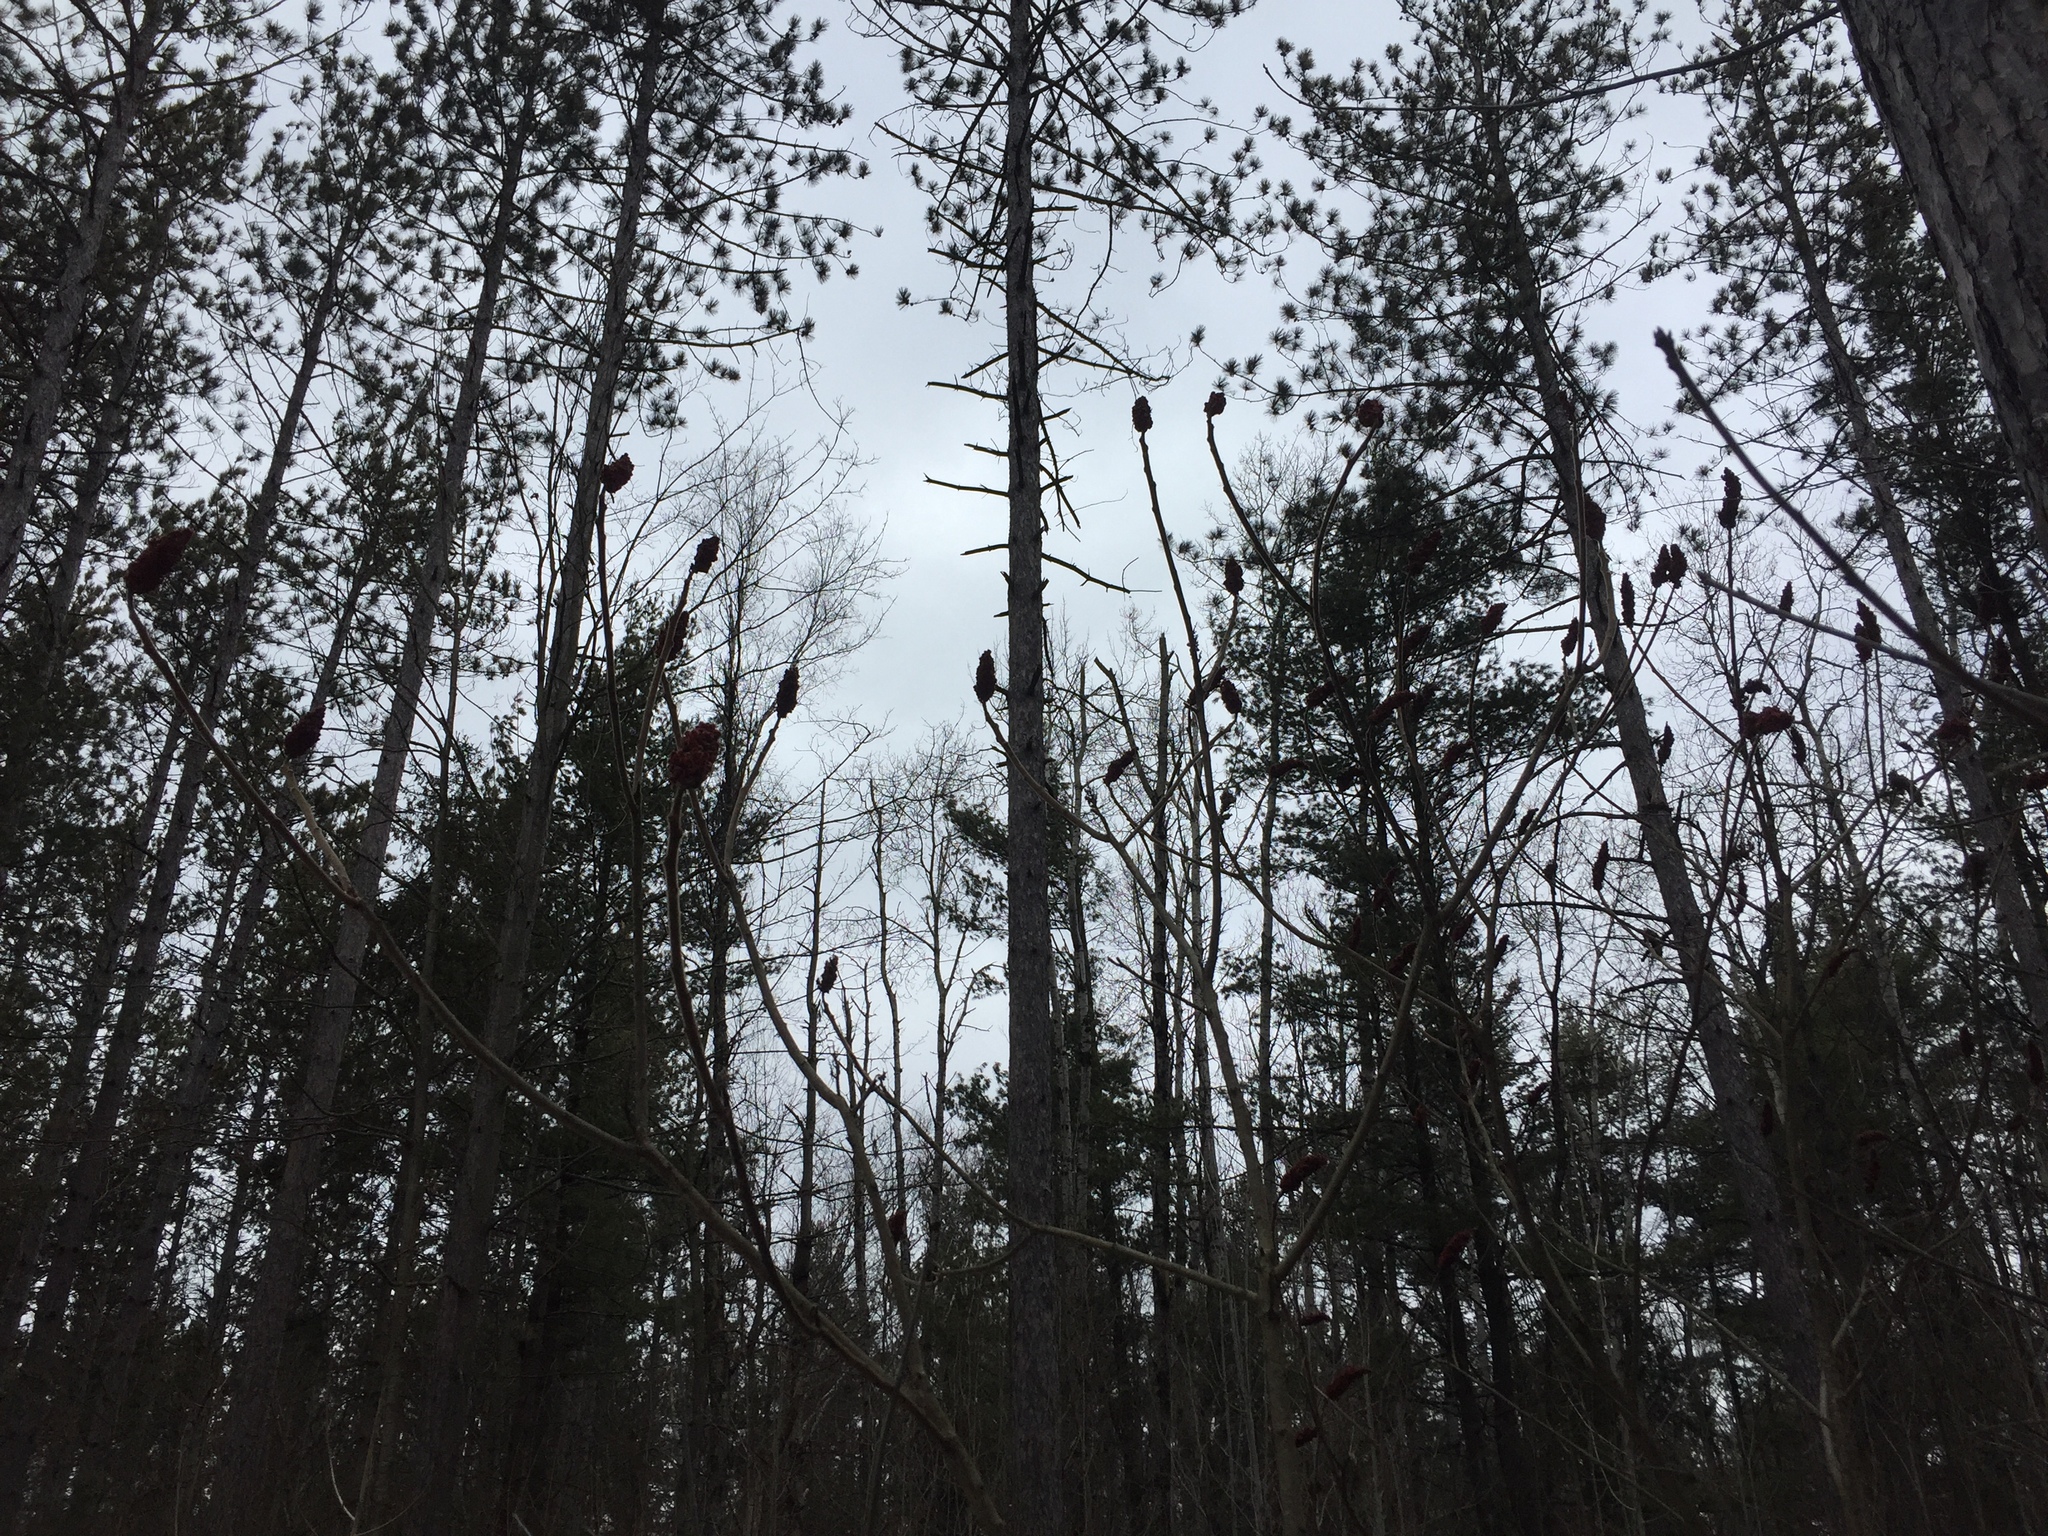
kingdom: Plantae
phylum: Tracheophyta
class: Magnoliopsida
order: Sapindales
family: Anacardiaceae
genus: Rhus
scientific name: Rhus typhina
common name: Staghorn sumac
